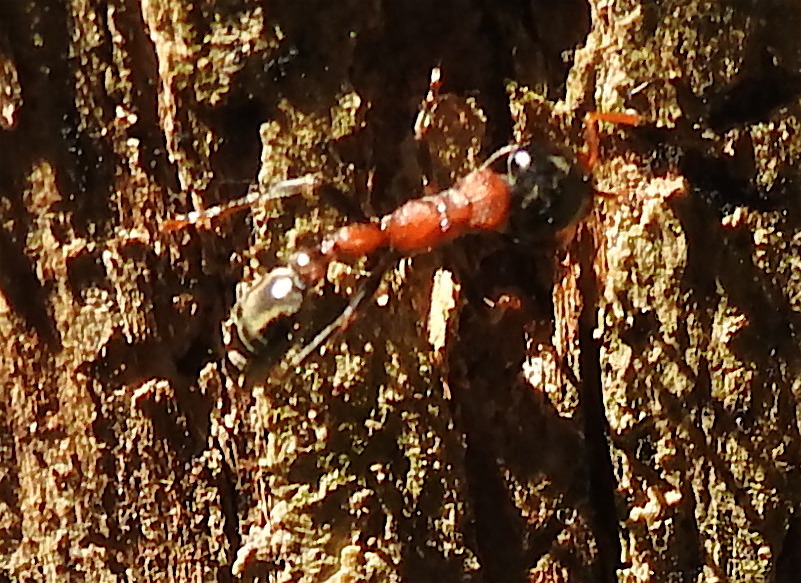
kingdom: Animalia
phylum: Arthropoda
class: Insecta
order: Hymenoptera
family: Formicidae
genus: Tetraponera
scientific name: Tetraponera rufonigra
